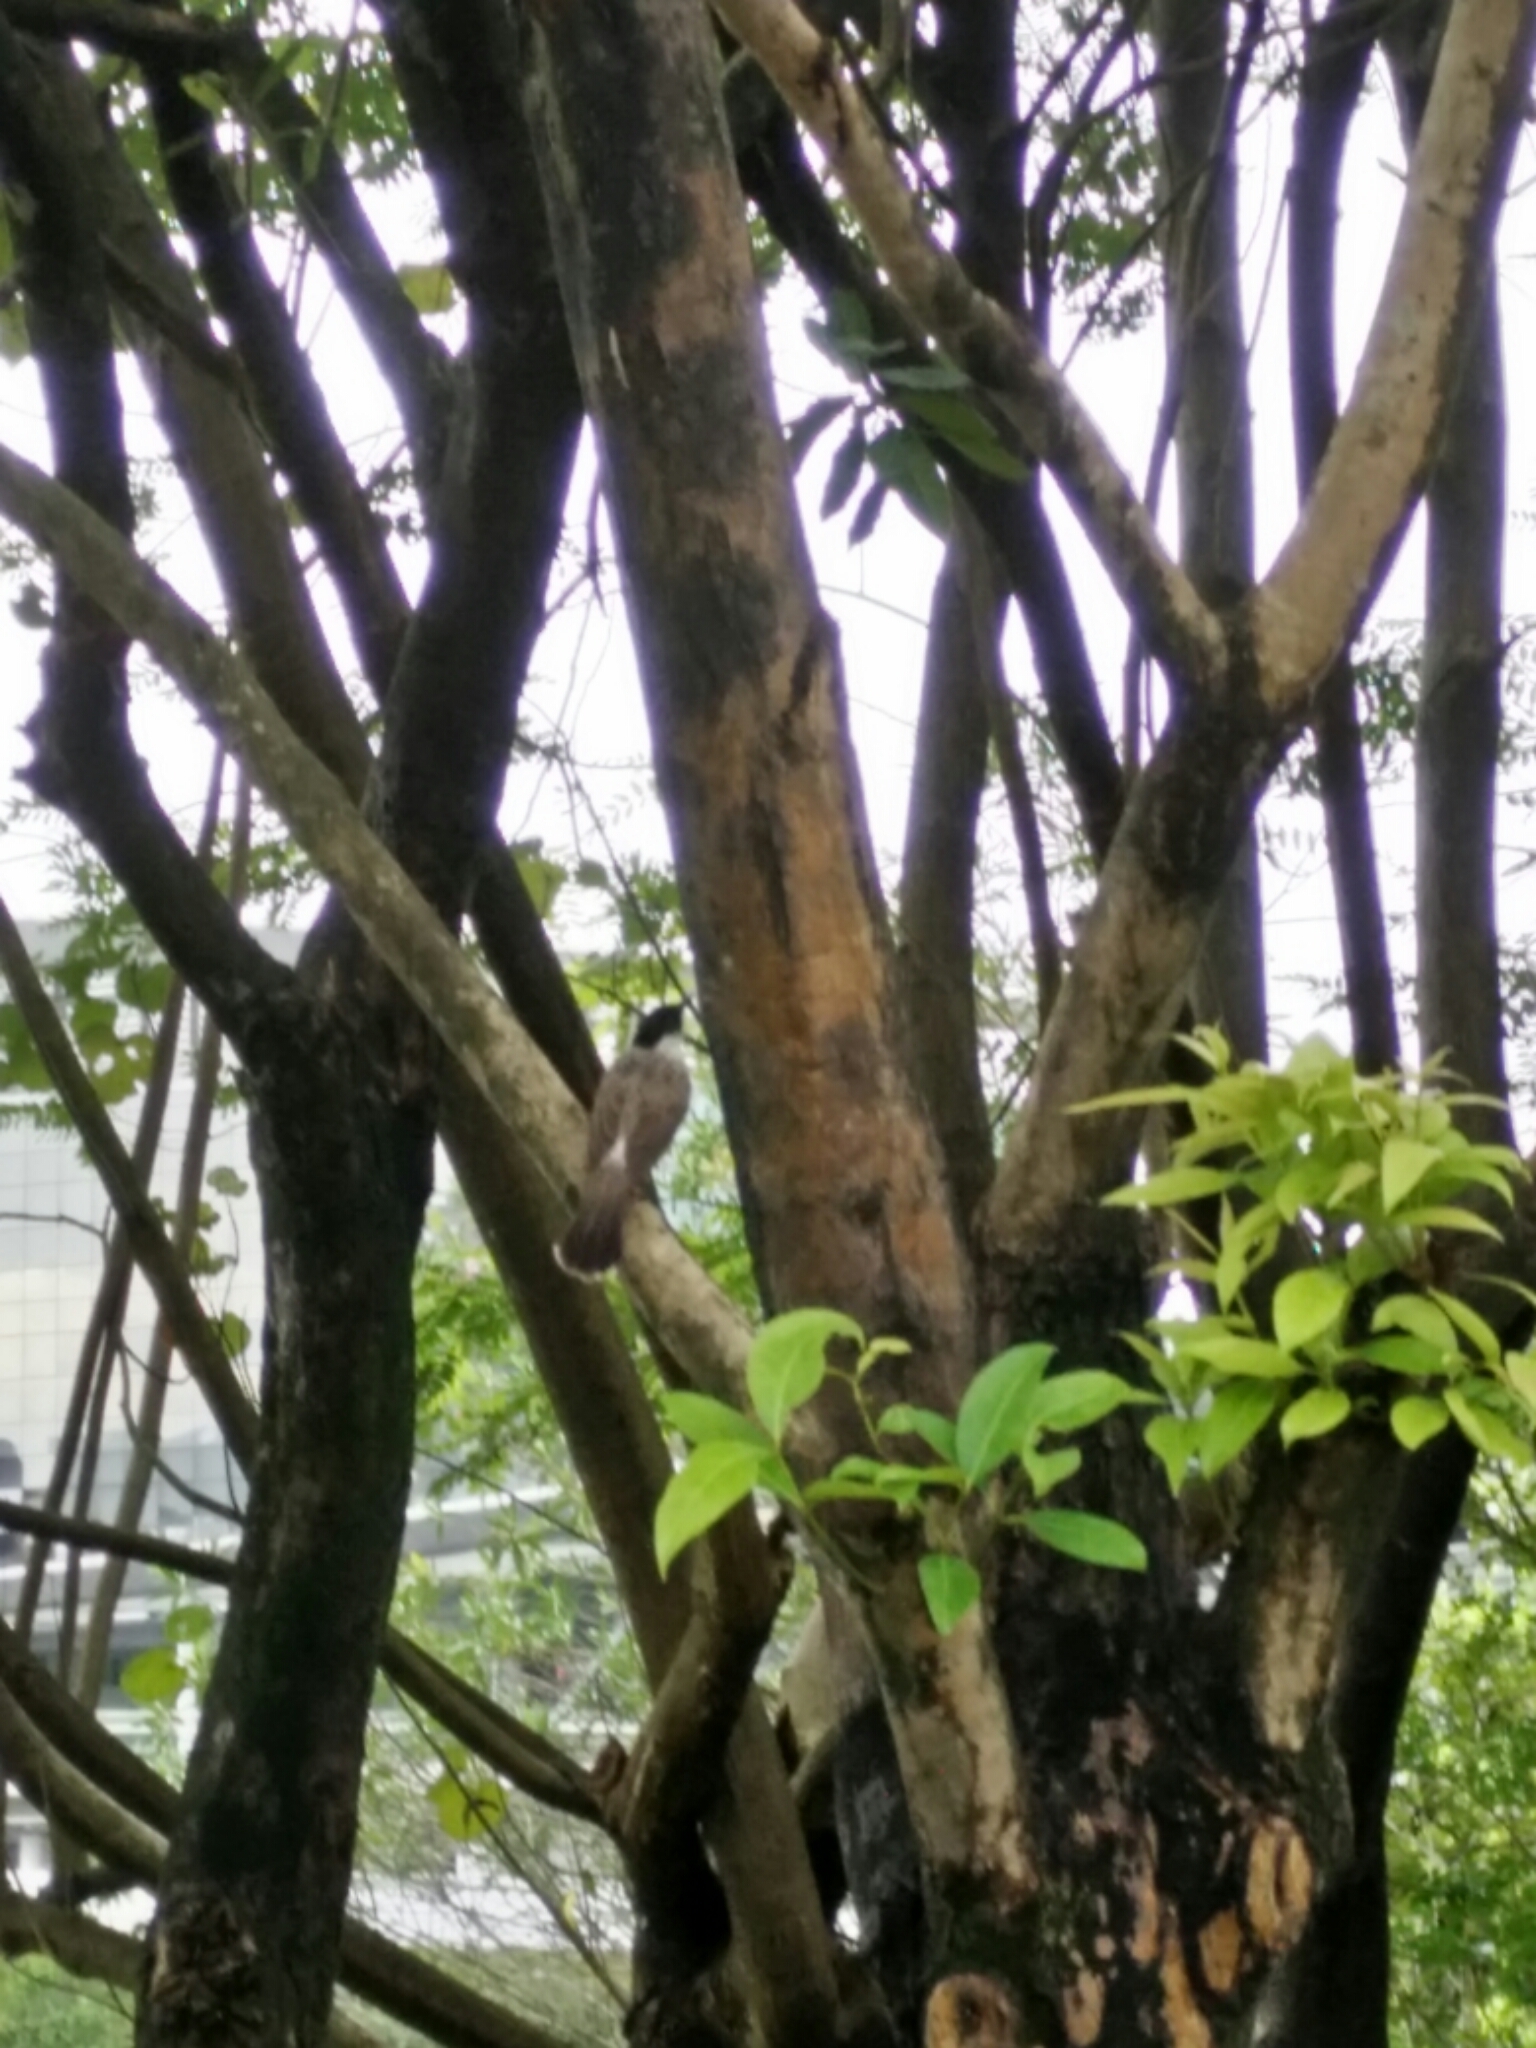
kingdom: Animalia
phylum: Chordata
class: Aves
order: Passeriformes
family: Pycnonotidae
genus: Pycnonotus
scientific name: Pycnonotus aurigaster
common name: Sooty-headed bulbul
